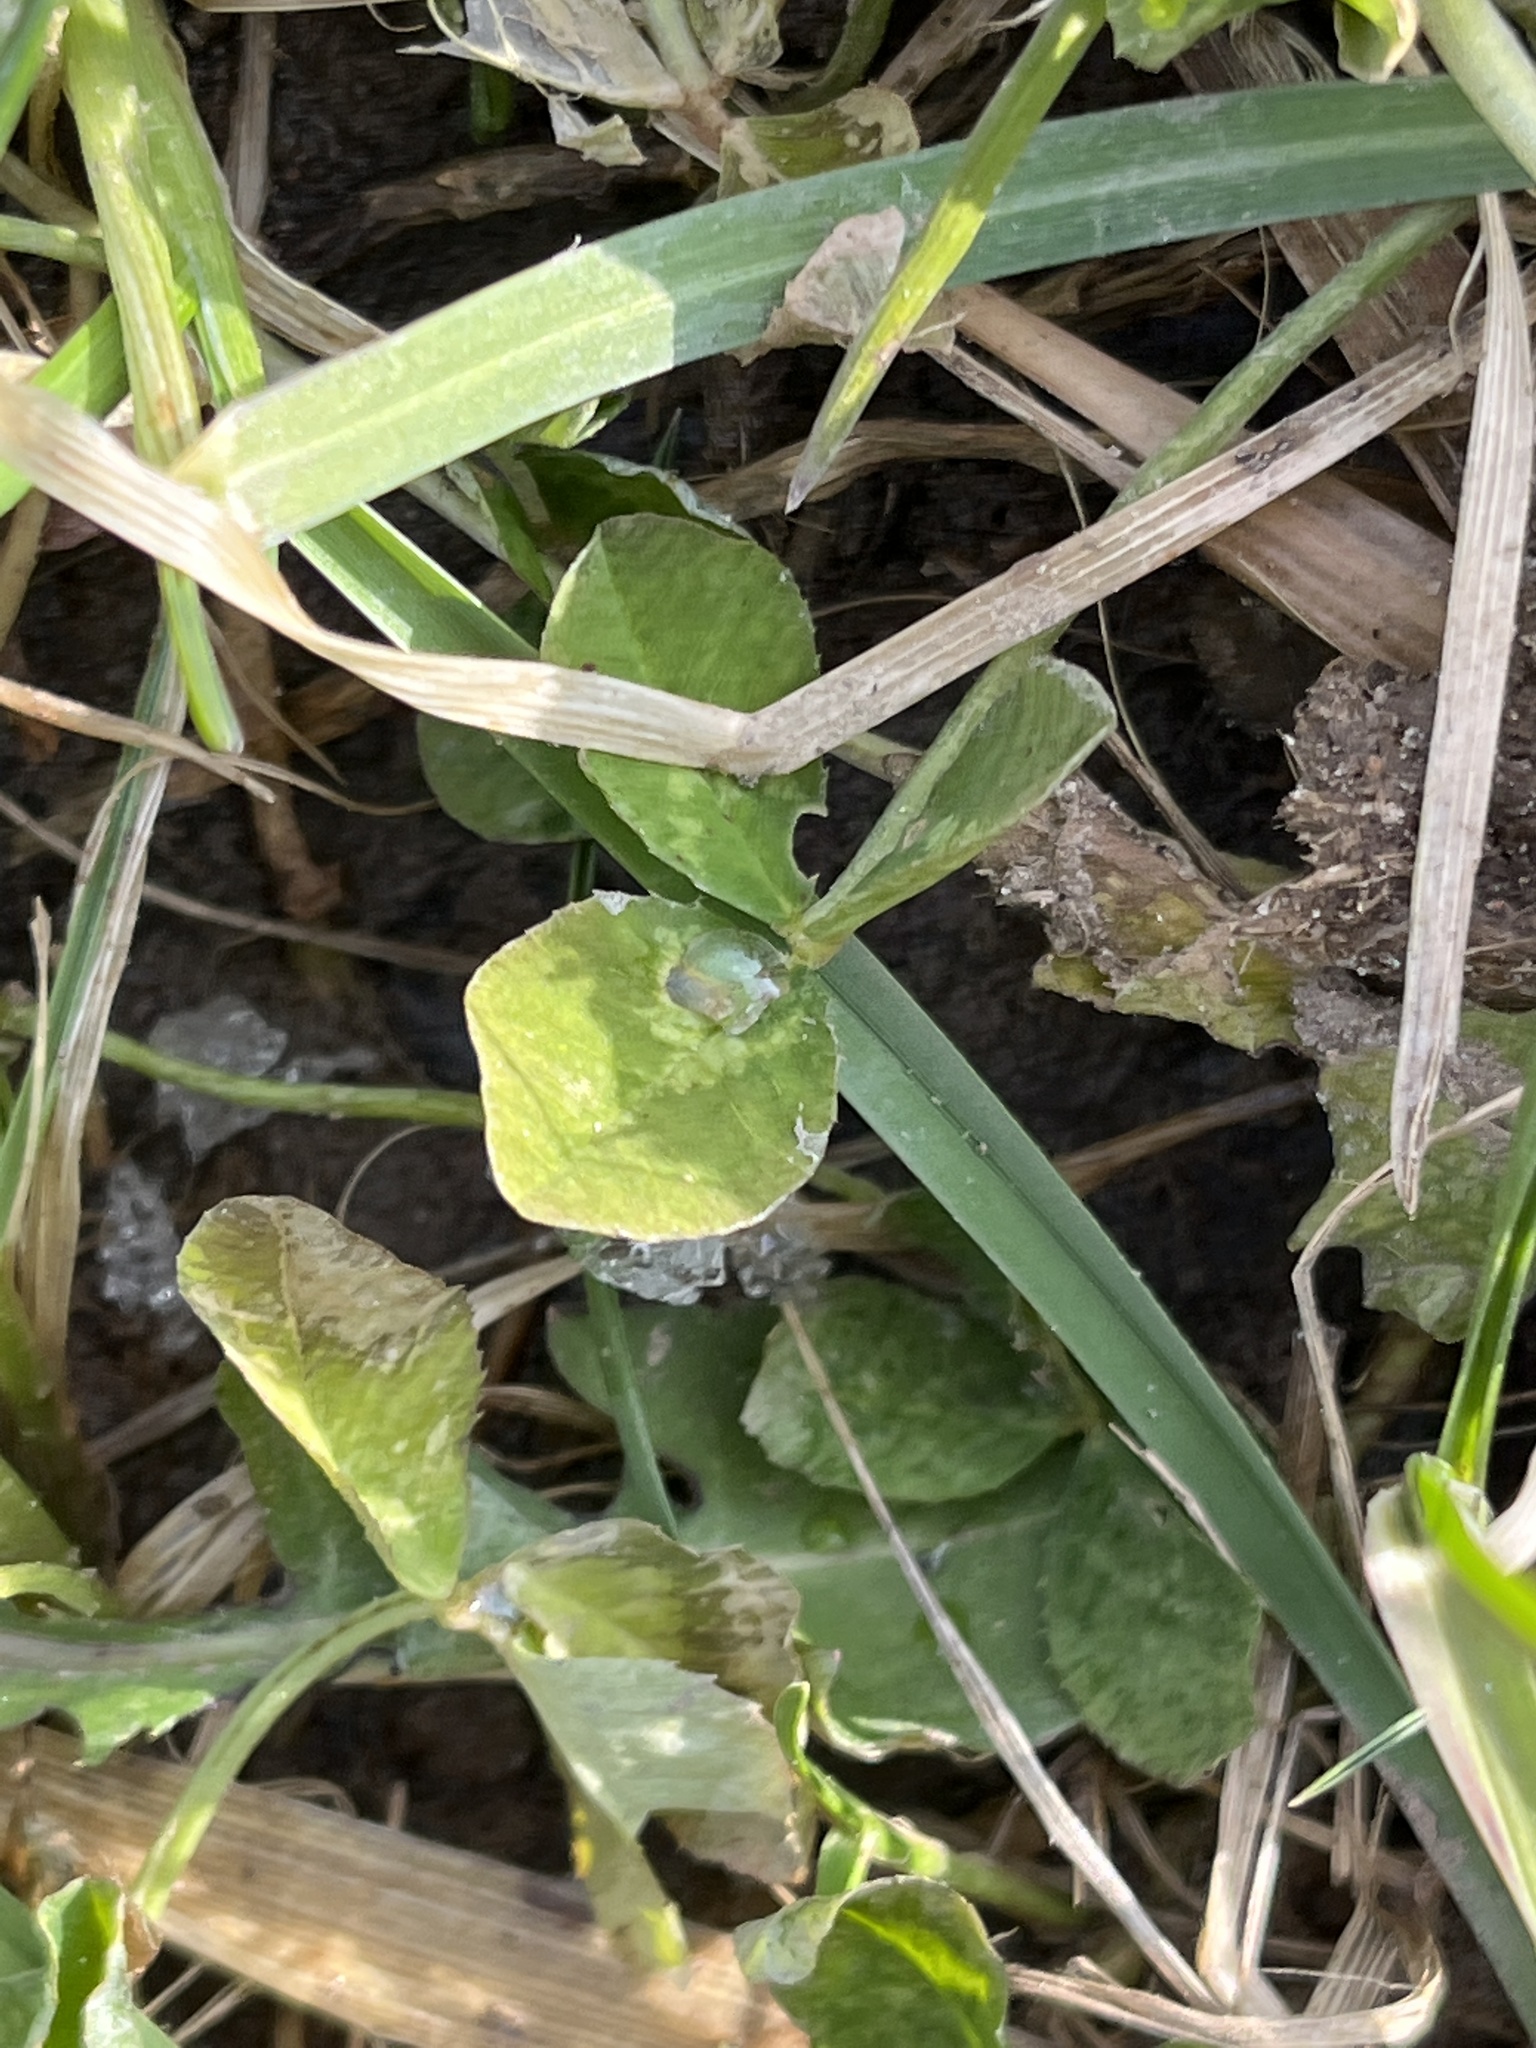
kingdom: Plantae
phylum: Tracheophyta
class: Magnoliopsida
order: Fabales
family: Fabaceae
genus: Trifolium
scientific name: Trifolium repens
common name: White clover
